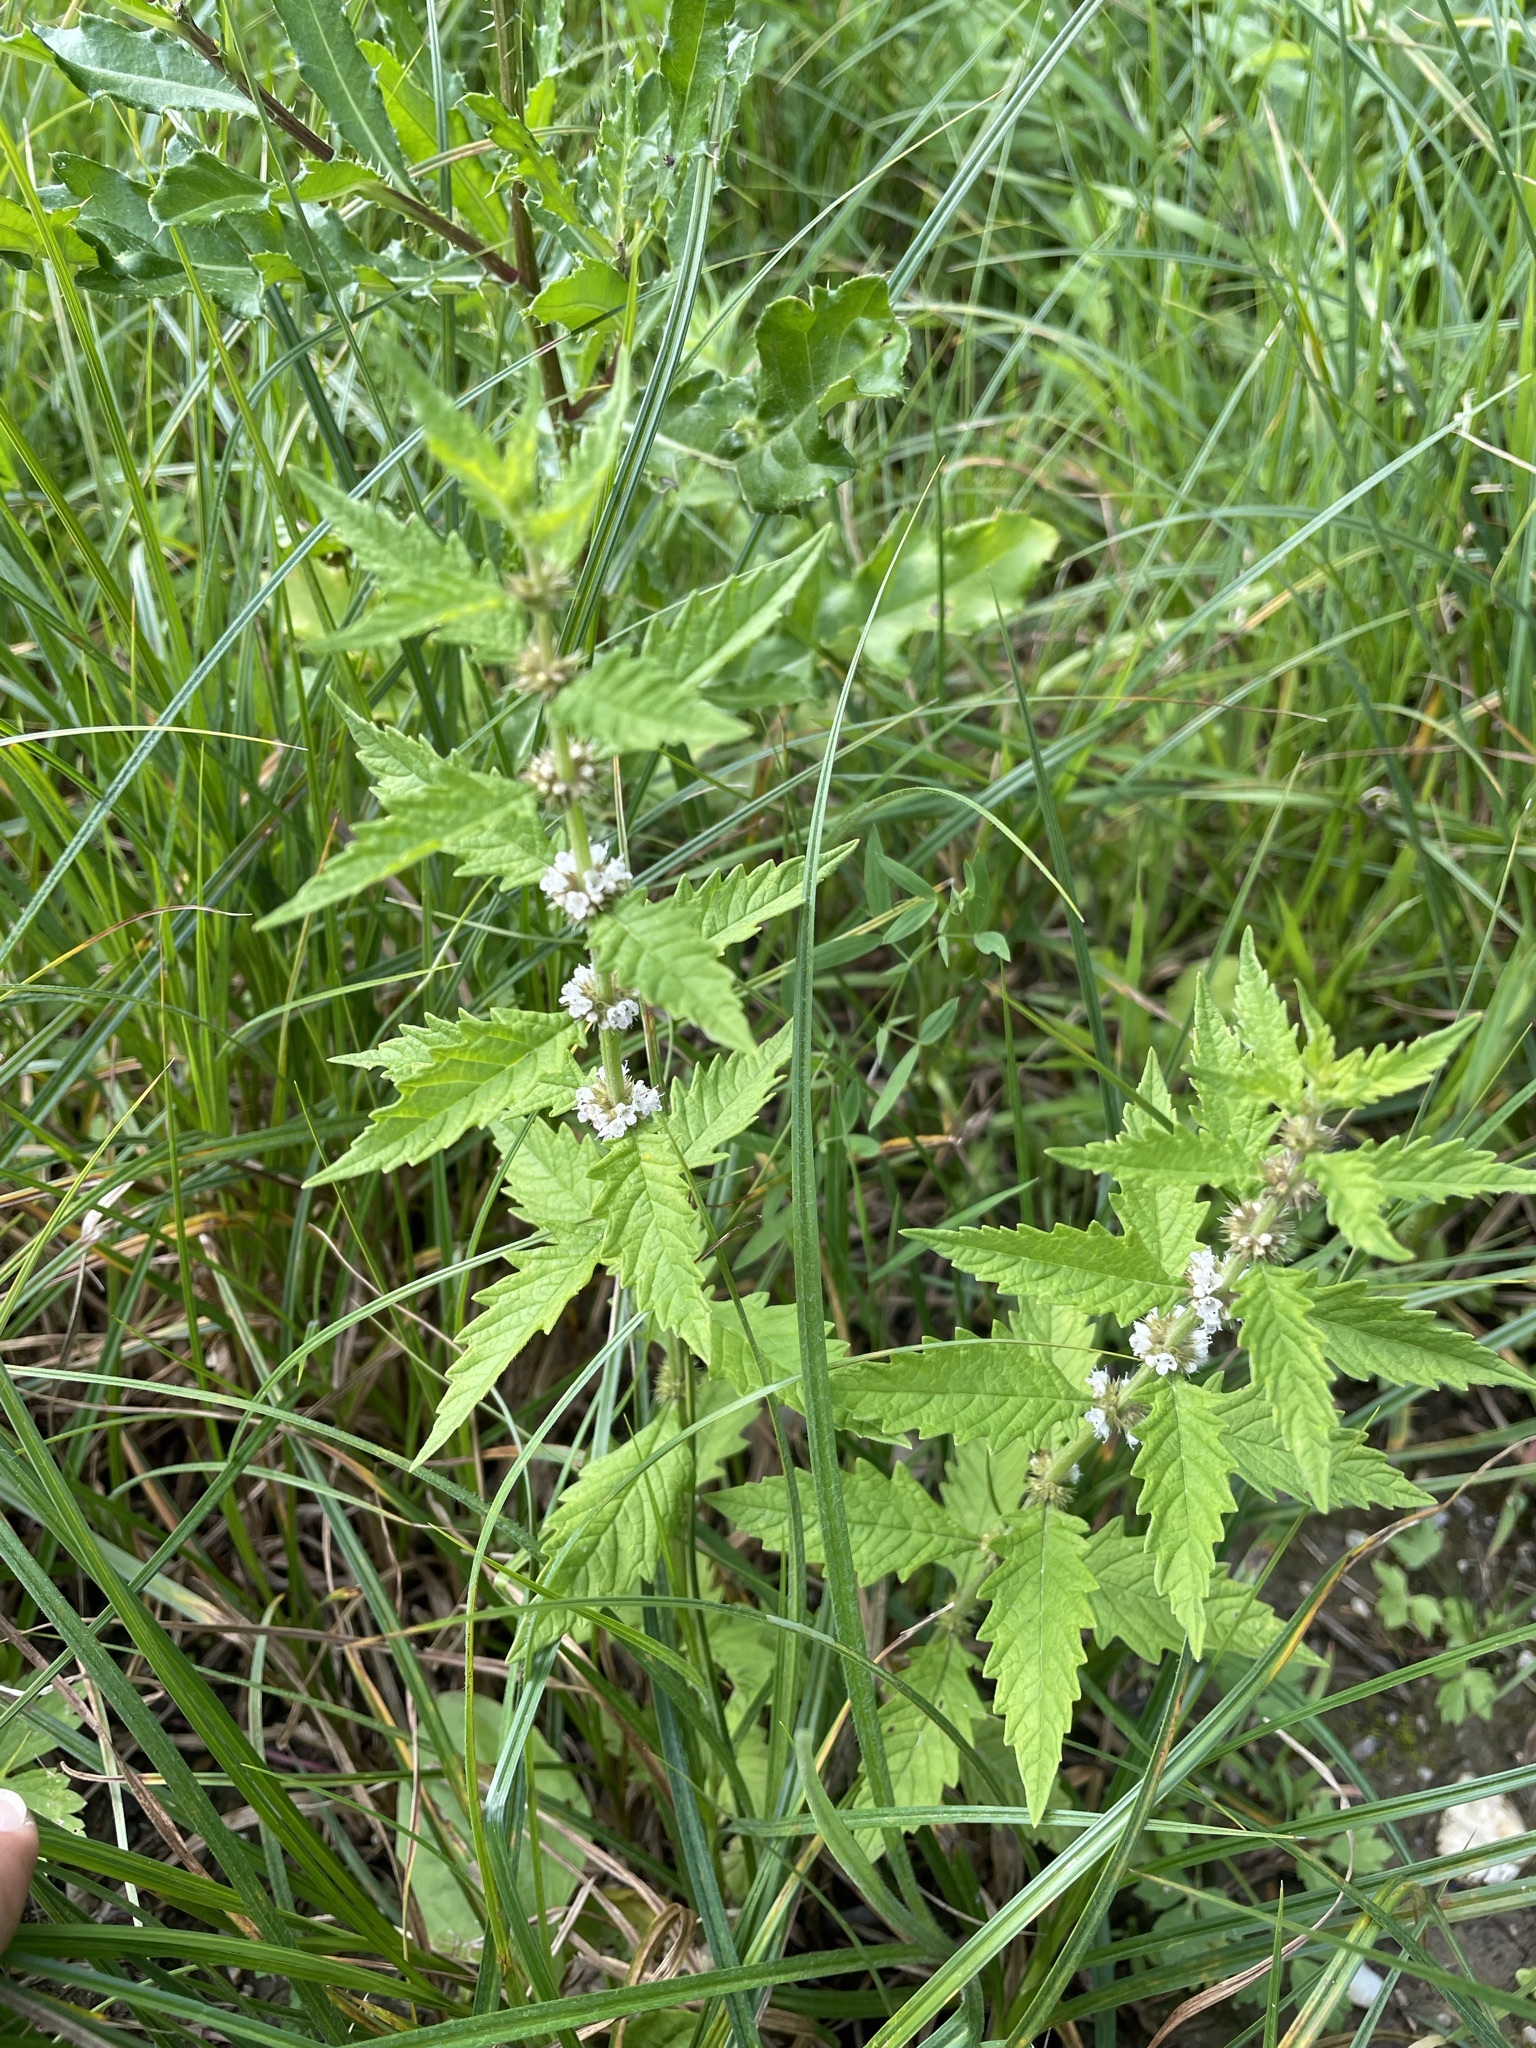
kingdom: Plantae
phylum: Tracheophyta
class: Magnoliopsida
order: Lamiales
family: Lamiaceae
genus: Lycopus
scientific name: Lycopus europaeus
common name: European bugleweed
